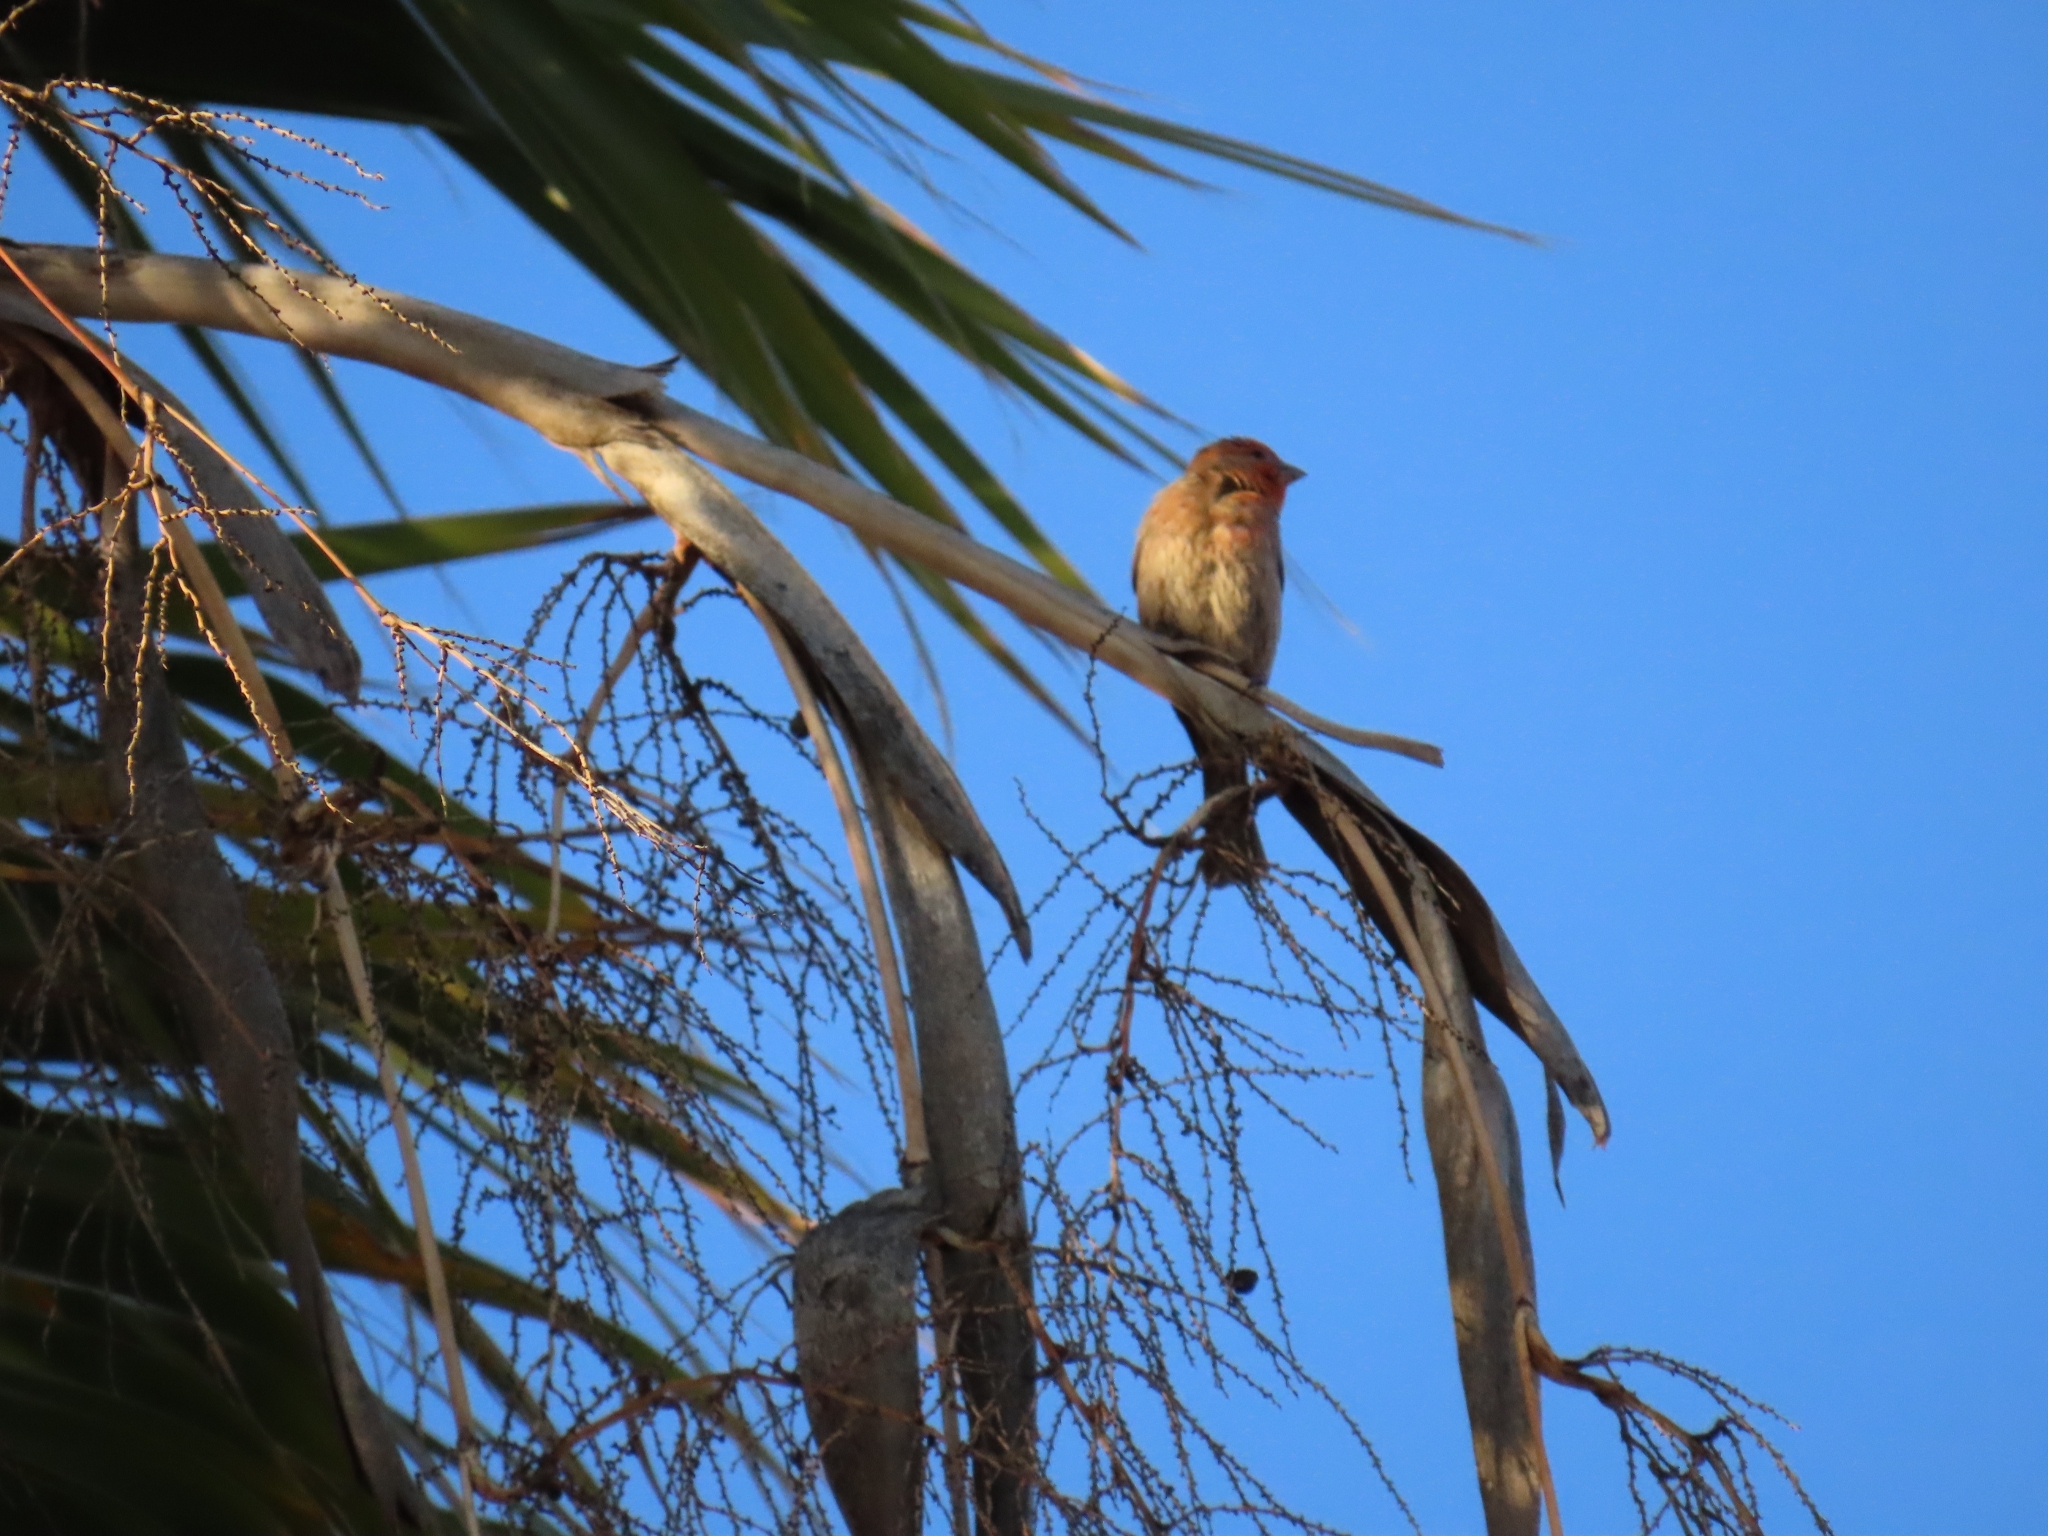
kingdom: Animalia
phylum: Chordata
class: Aves
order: Passeriformes
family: Fringillidae
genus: Haemorhous
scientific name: Haemorhous mexicanus
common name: House finch
